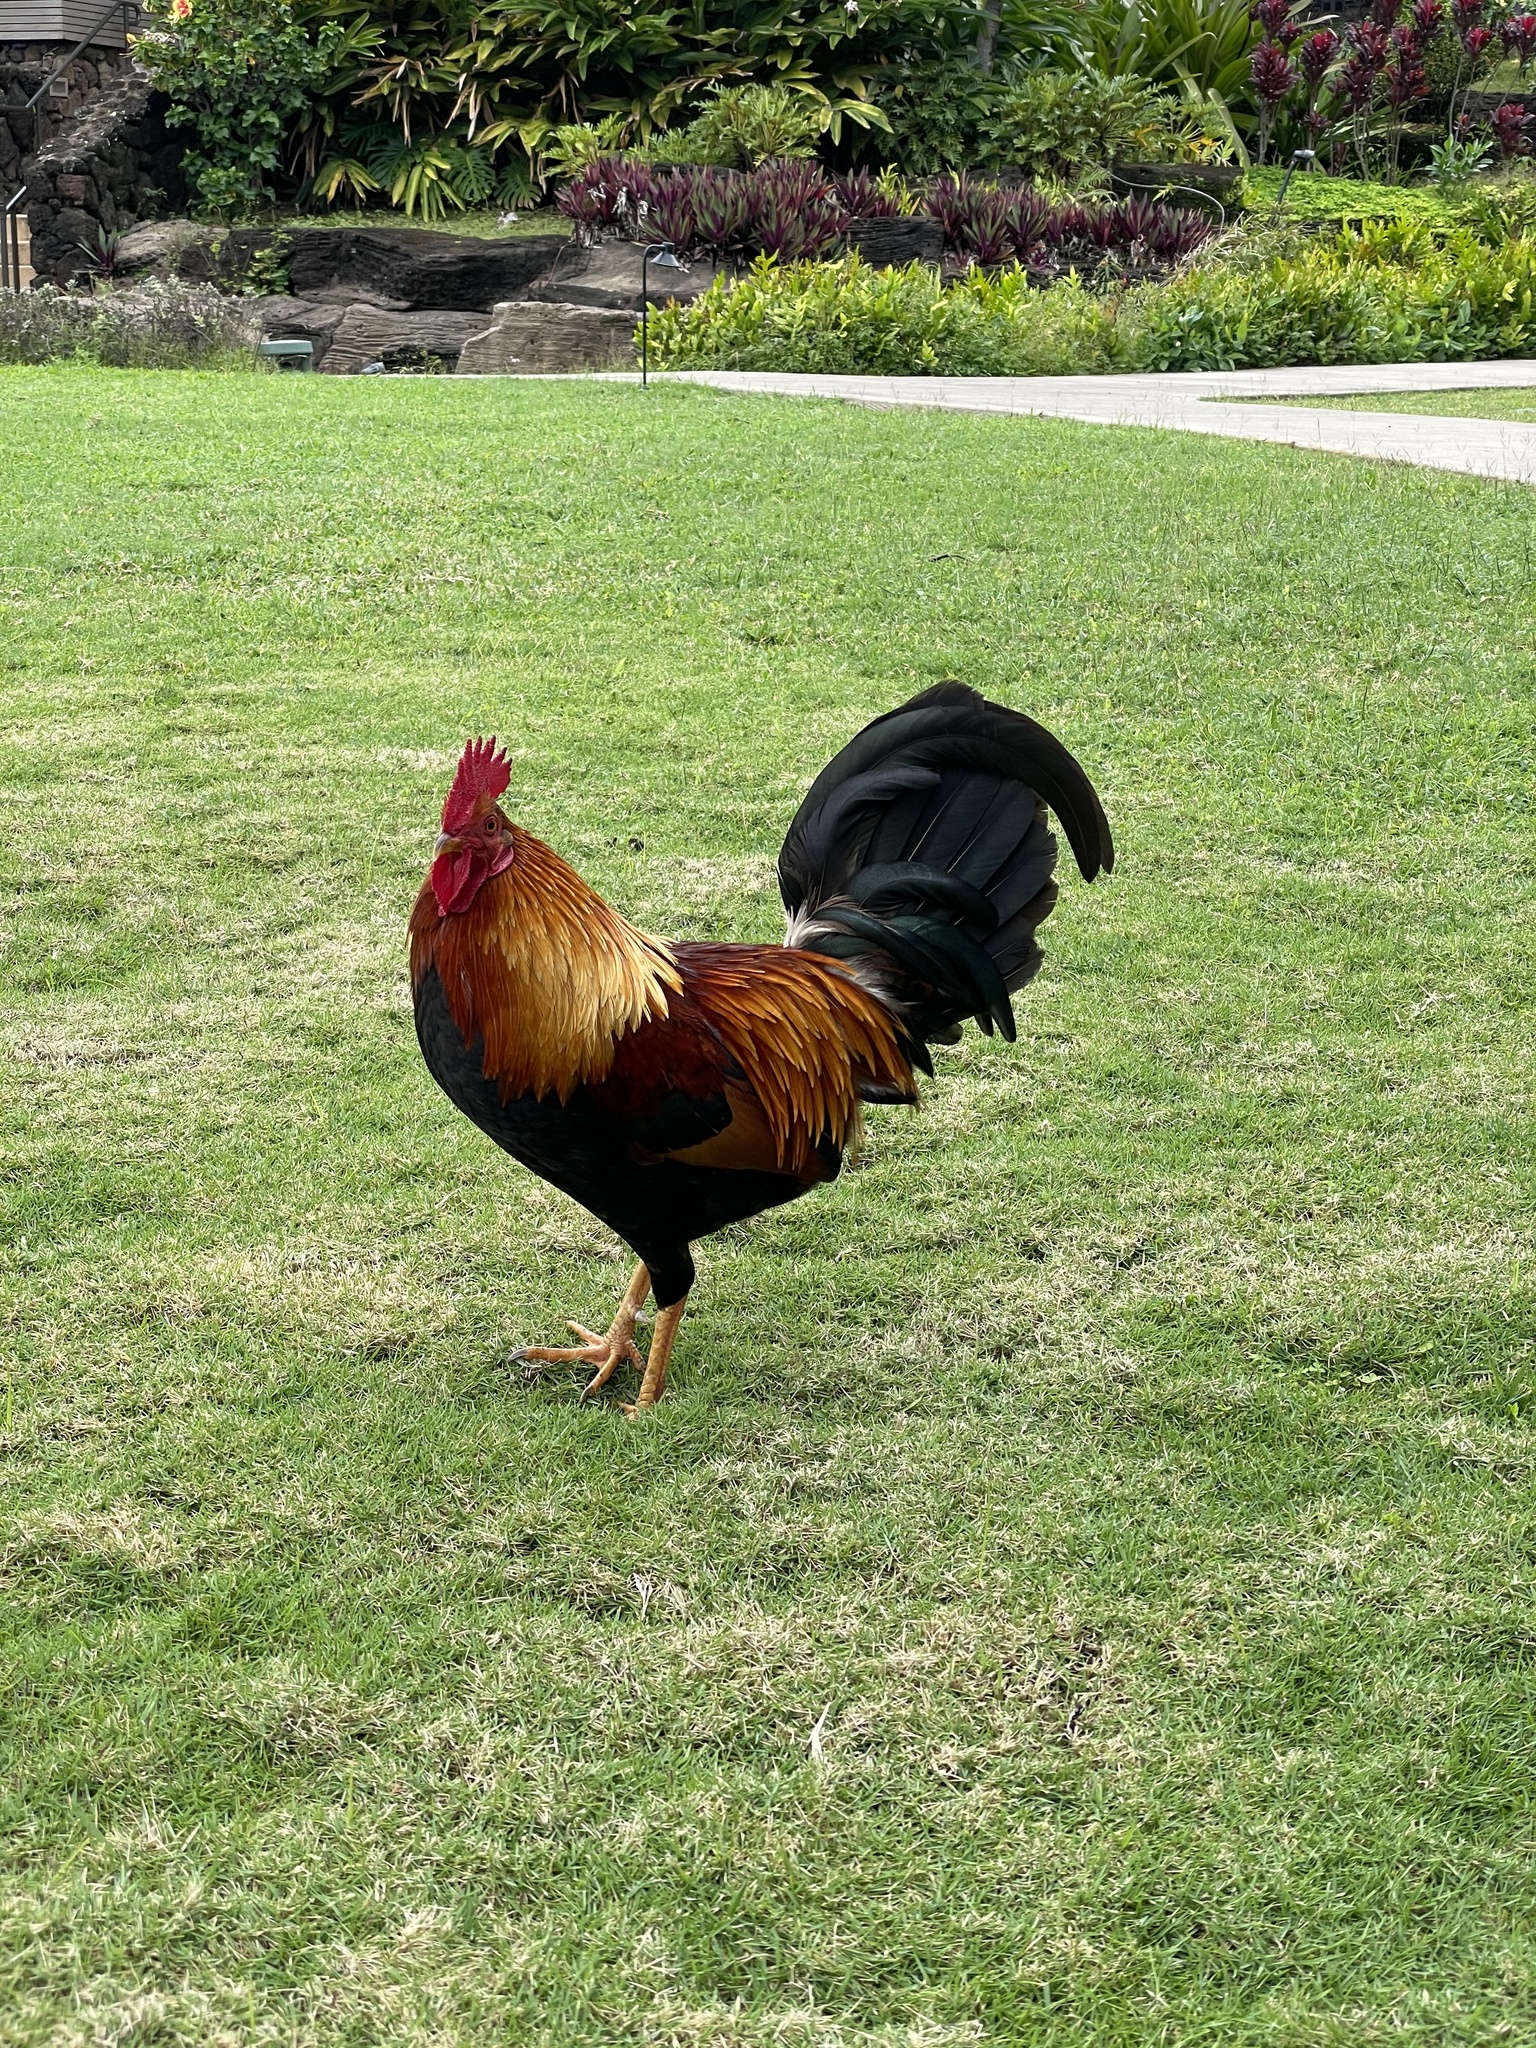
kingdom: Animalia
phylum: Chordata
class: Aves
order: Galliformes
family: Phasianidae
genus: Gallus
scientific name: Gallus gallus
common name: Red junglefowl
